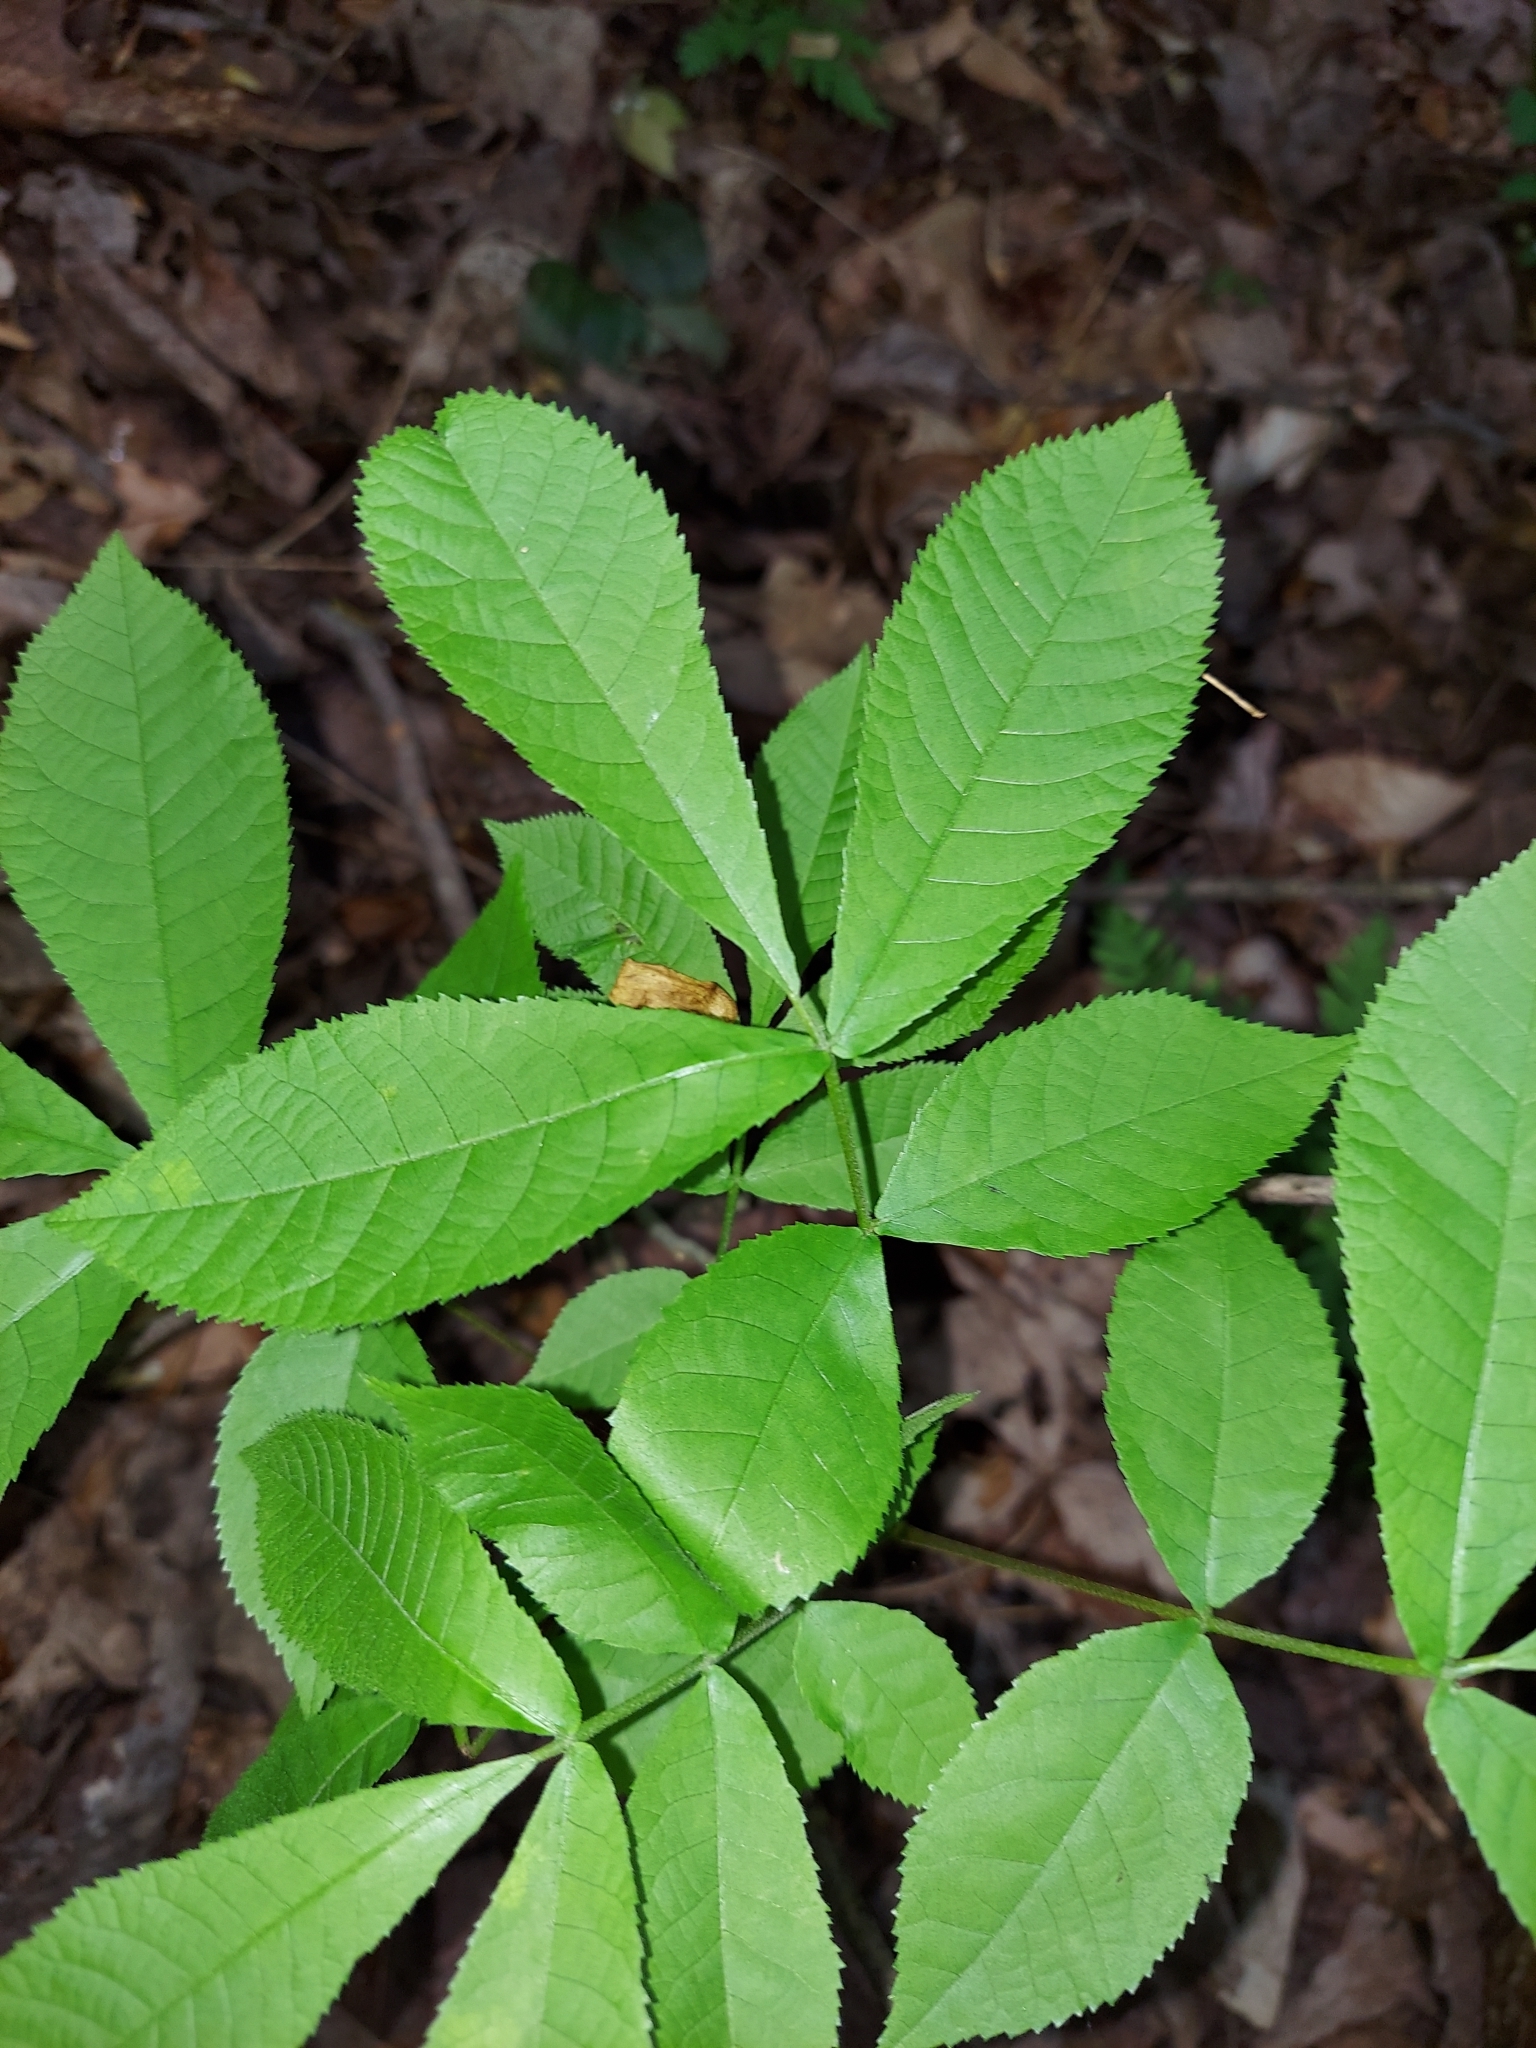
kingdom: Plantae
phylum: Tracheophyta
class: Magnoliopsida
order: Fagales
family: Juglandaceae
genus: Carya
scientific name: Carya glabra
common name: Pignut hickory
